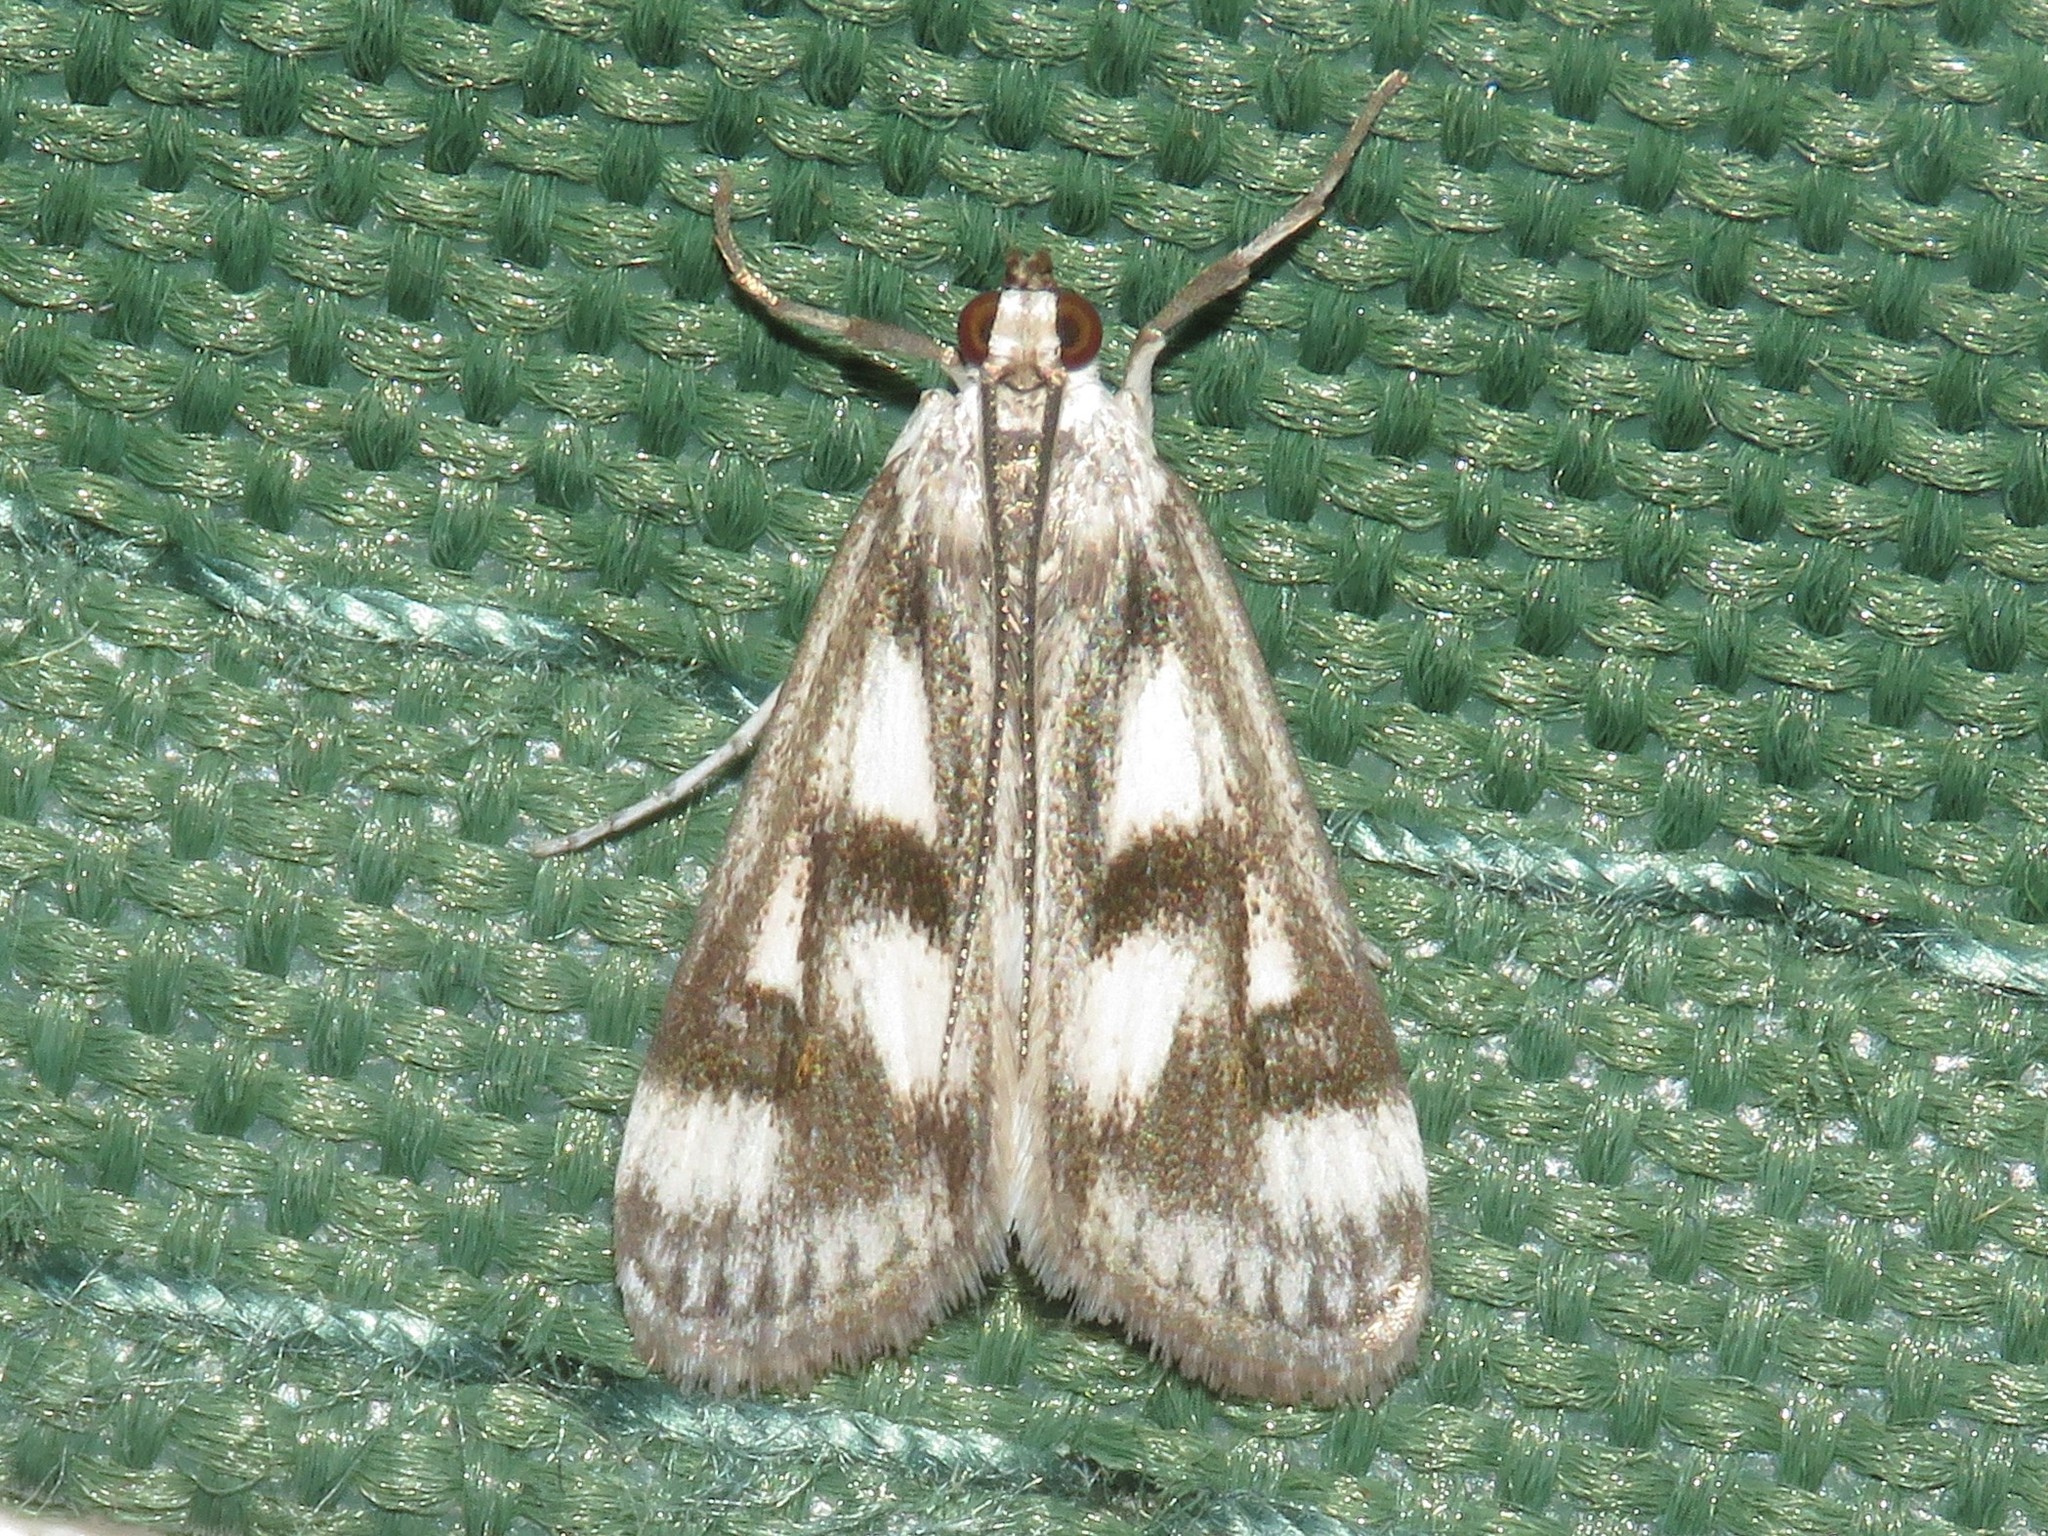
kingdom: Animalia
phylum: Arthropoda
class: Insecta
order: Lepidoptera
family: Crambidae
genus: Parapoynx
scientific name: Parapoynx maculalis
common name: Polymorphic pondweed moth
